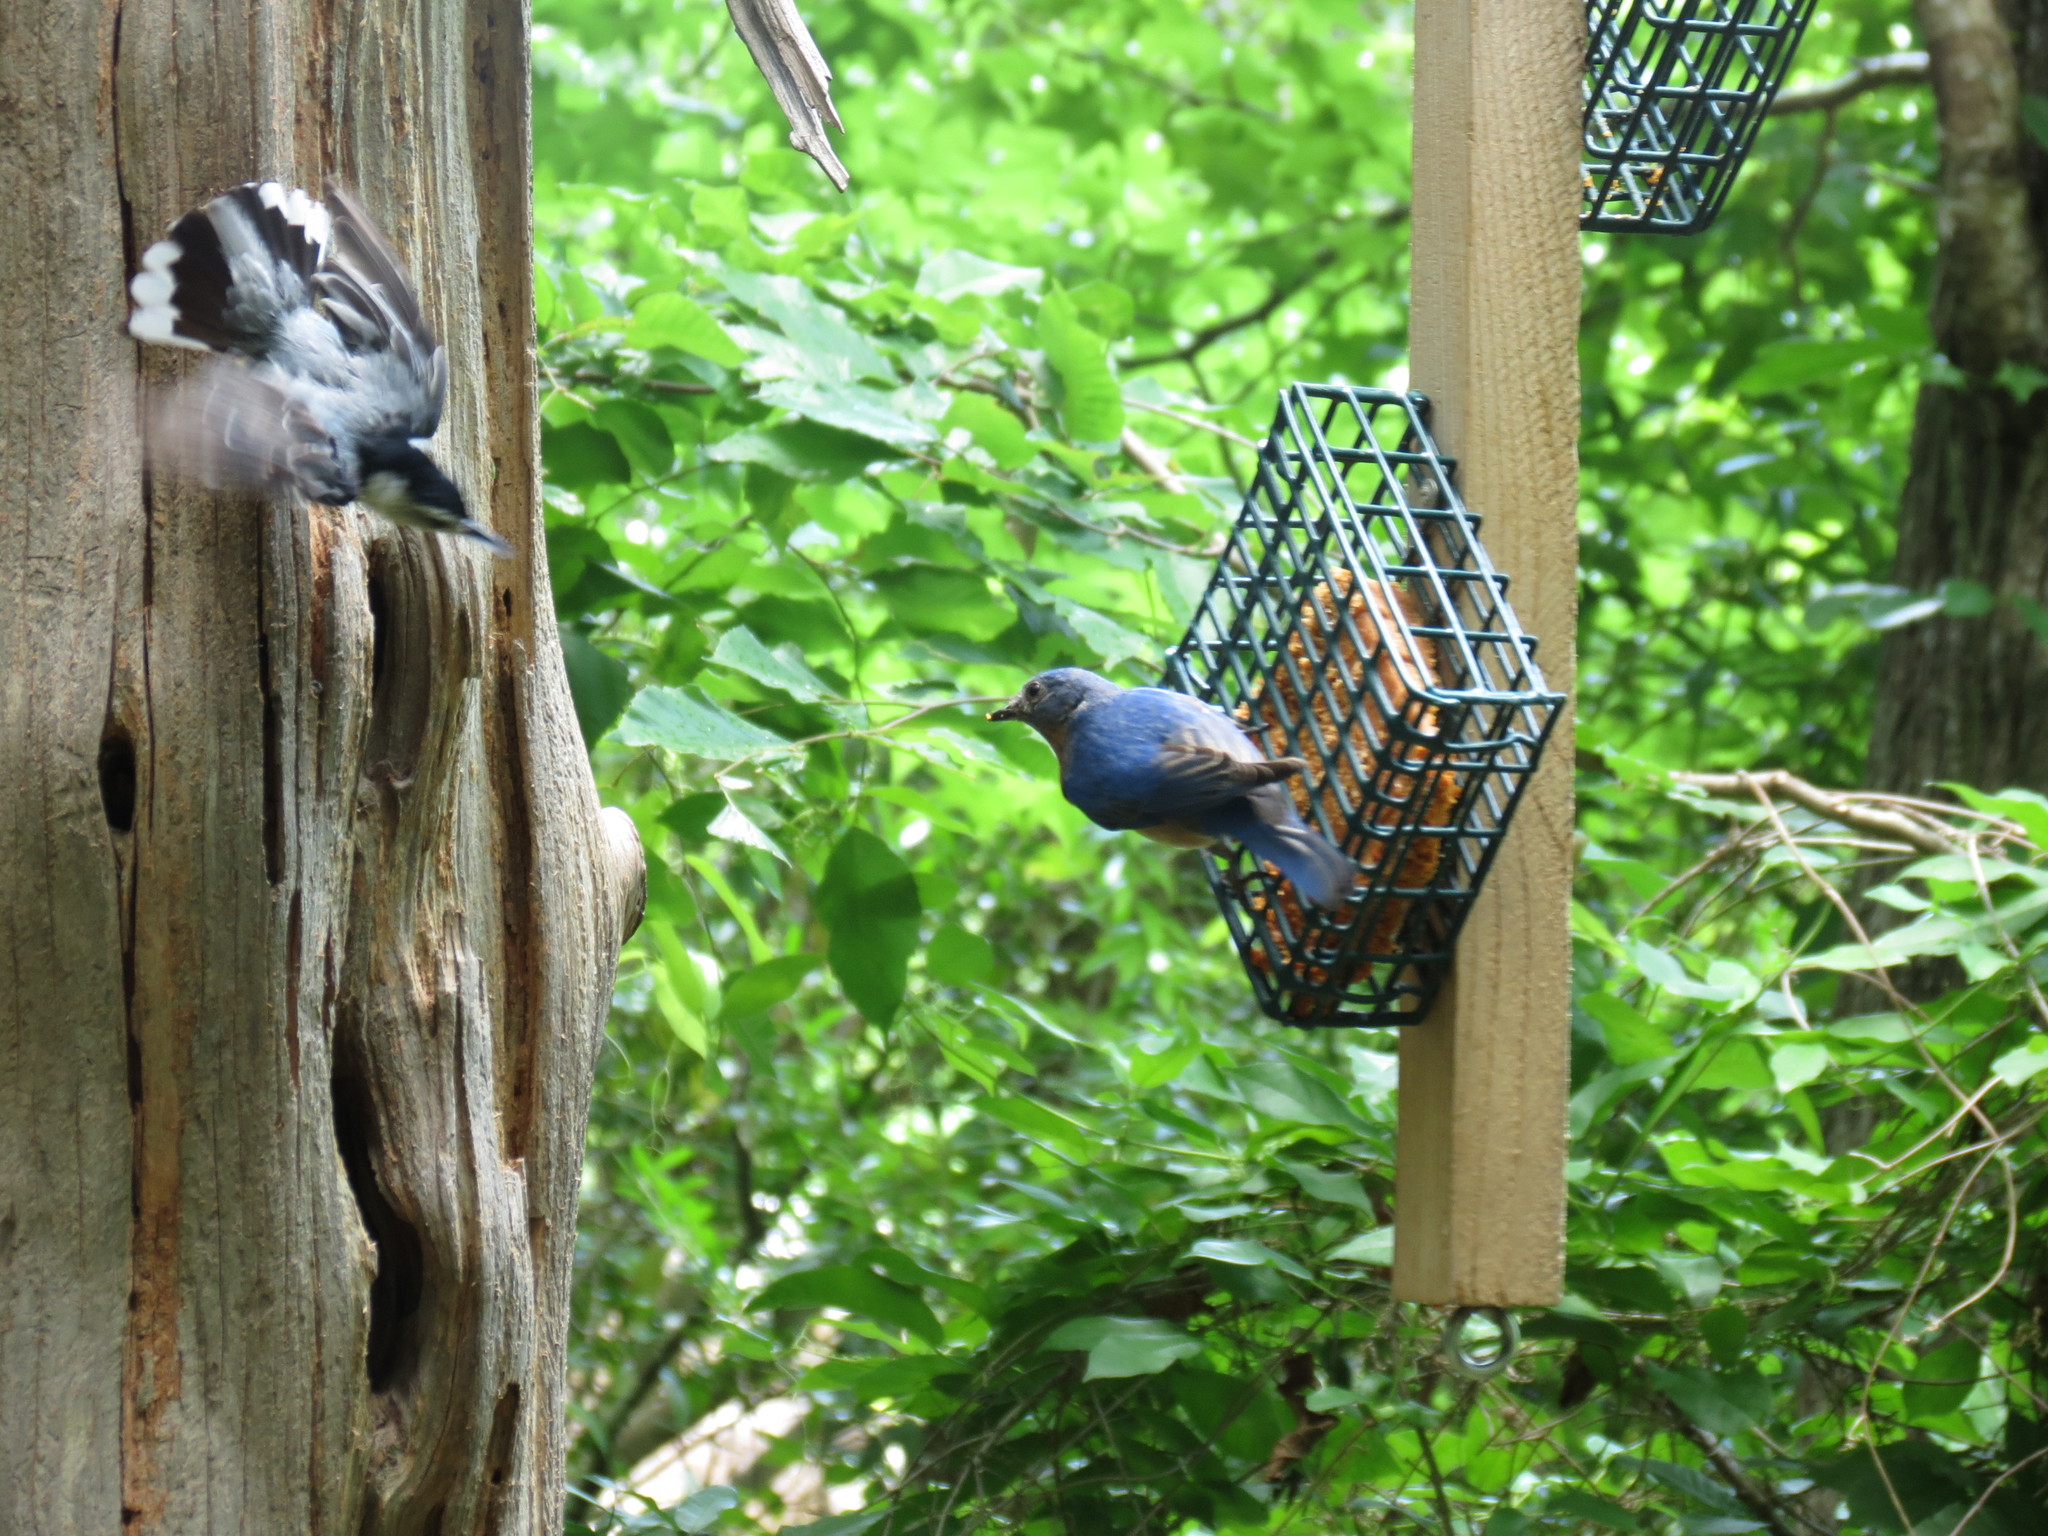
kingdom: Animalia
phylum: Chordata
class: Aves
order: Passeriformes
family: Turdidae
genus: Sialia
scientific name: Sialia sialis
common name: Eastern bluebird
